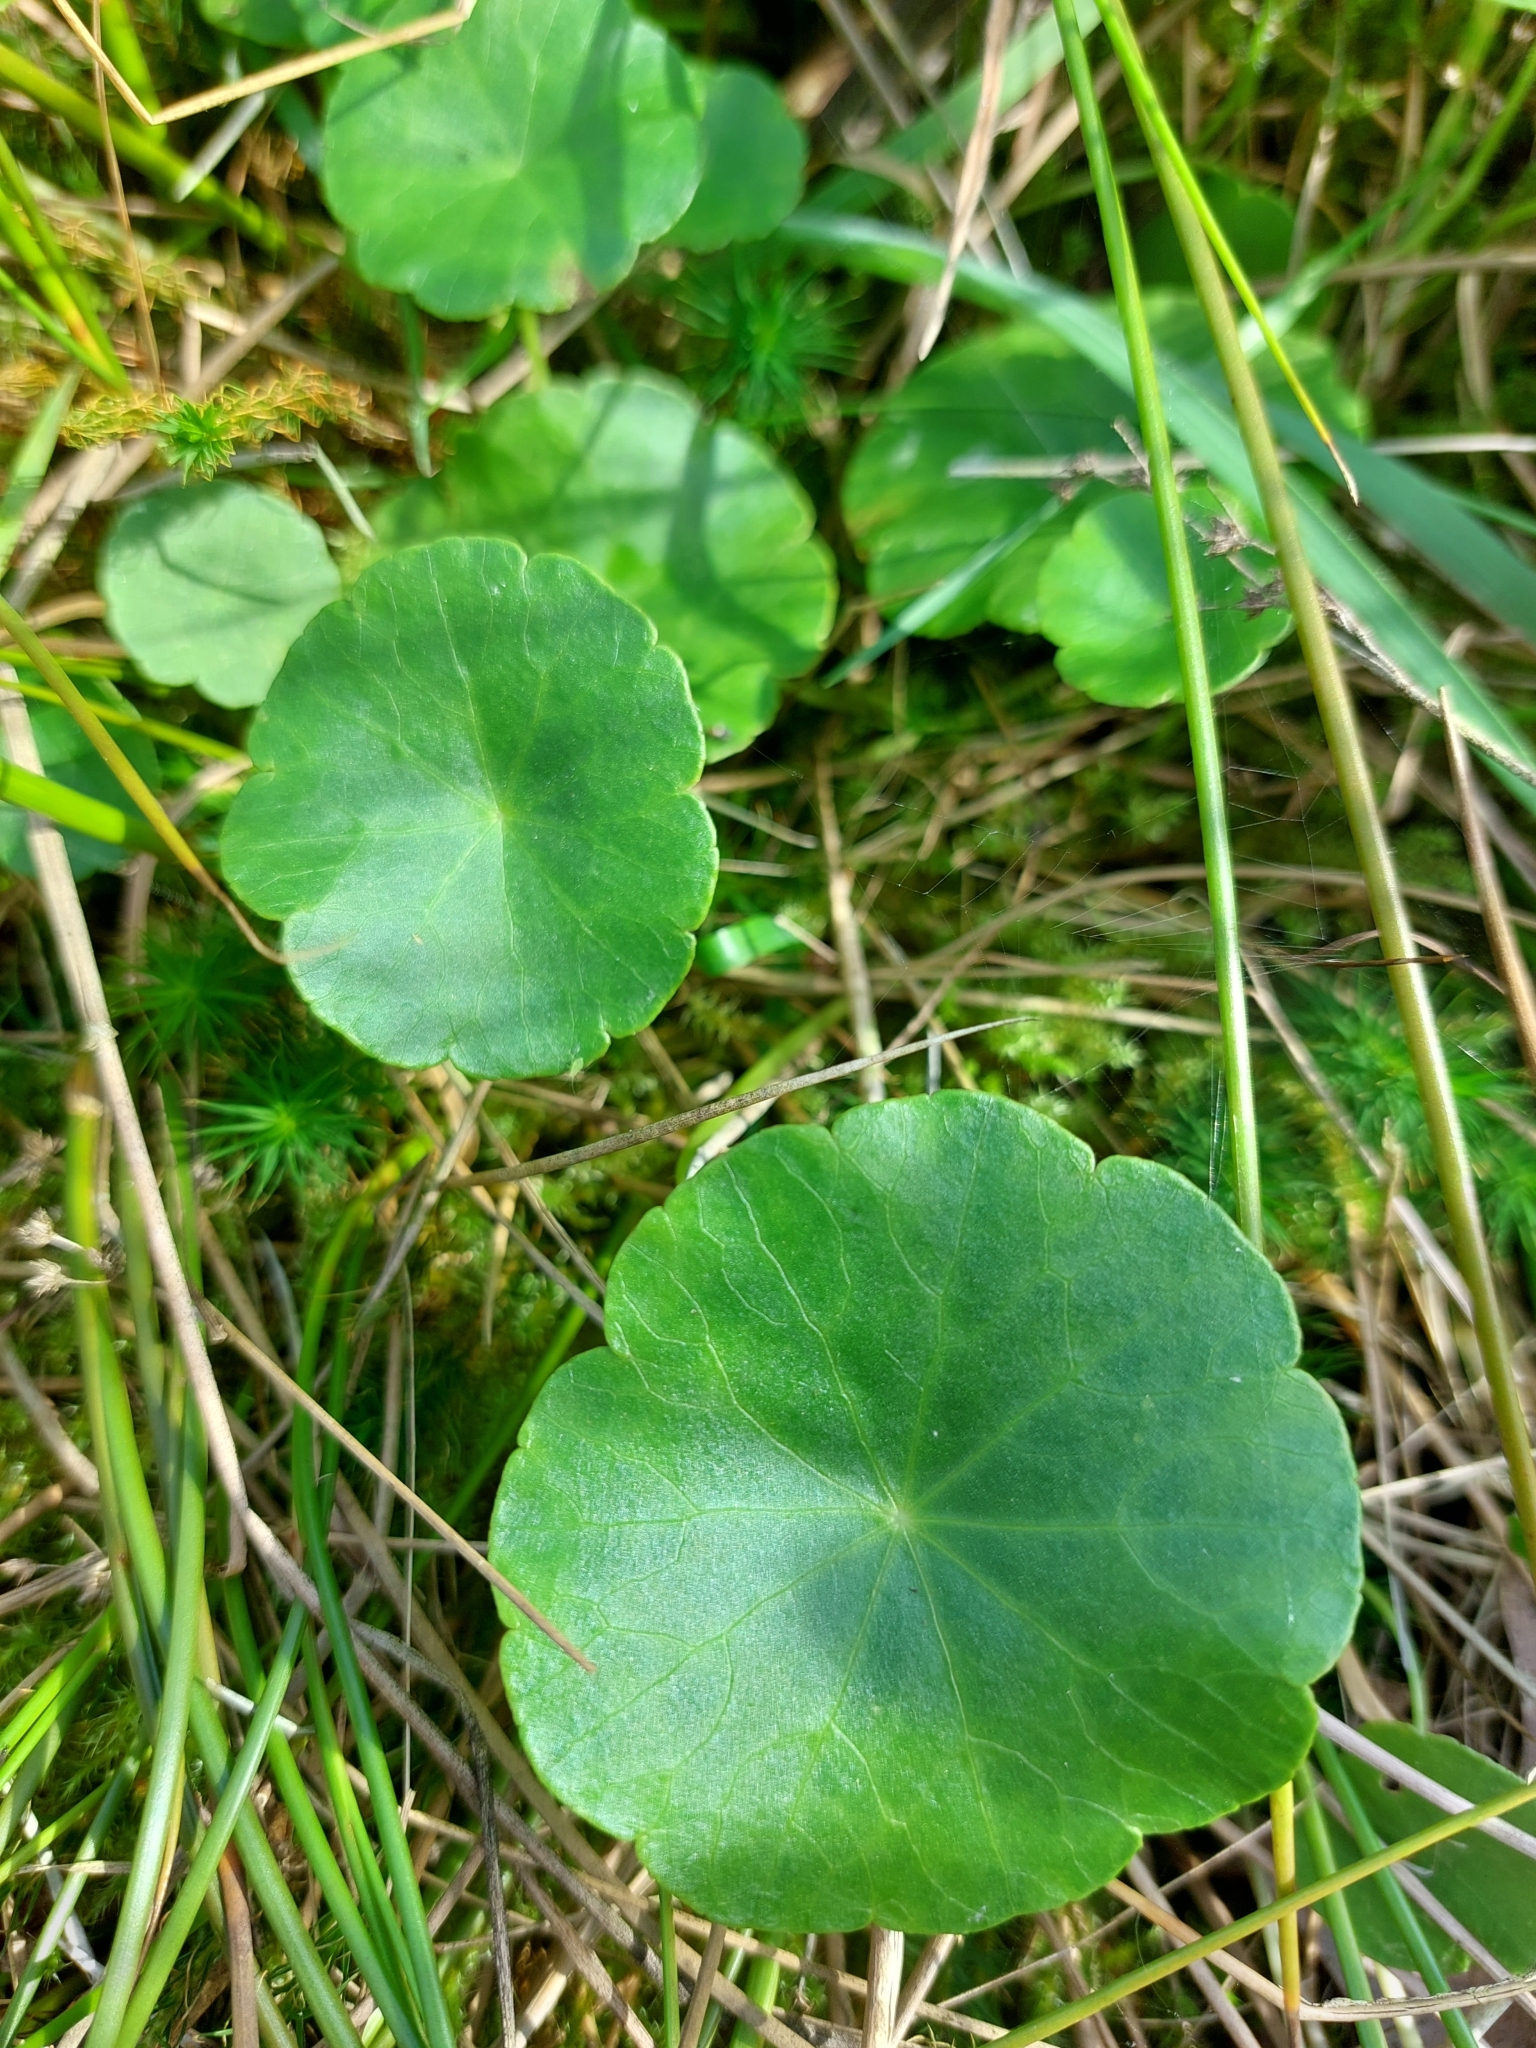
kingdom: Plantae
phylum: Tracheophyta
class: Magnoliopsida
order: Apiales
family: Araliaceae
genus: Hydrocotyle
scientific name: Hydrocotyle vulgaris
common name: Marsh pennywort
